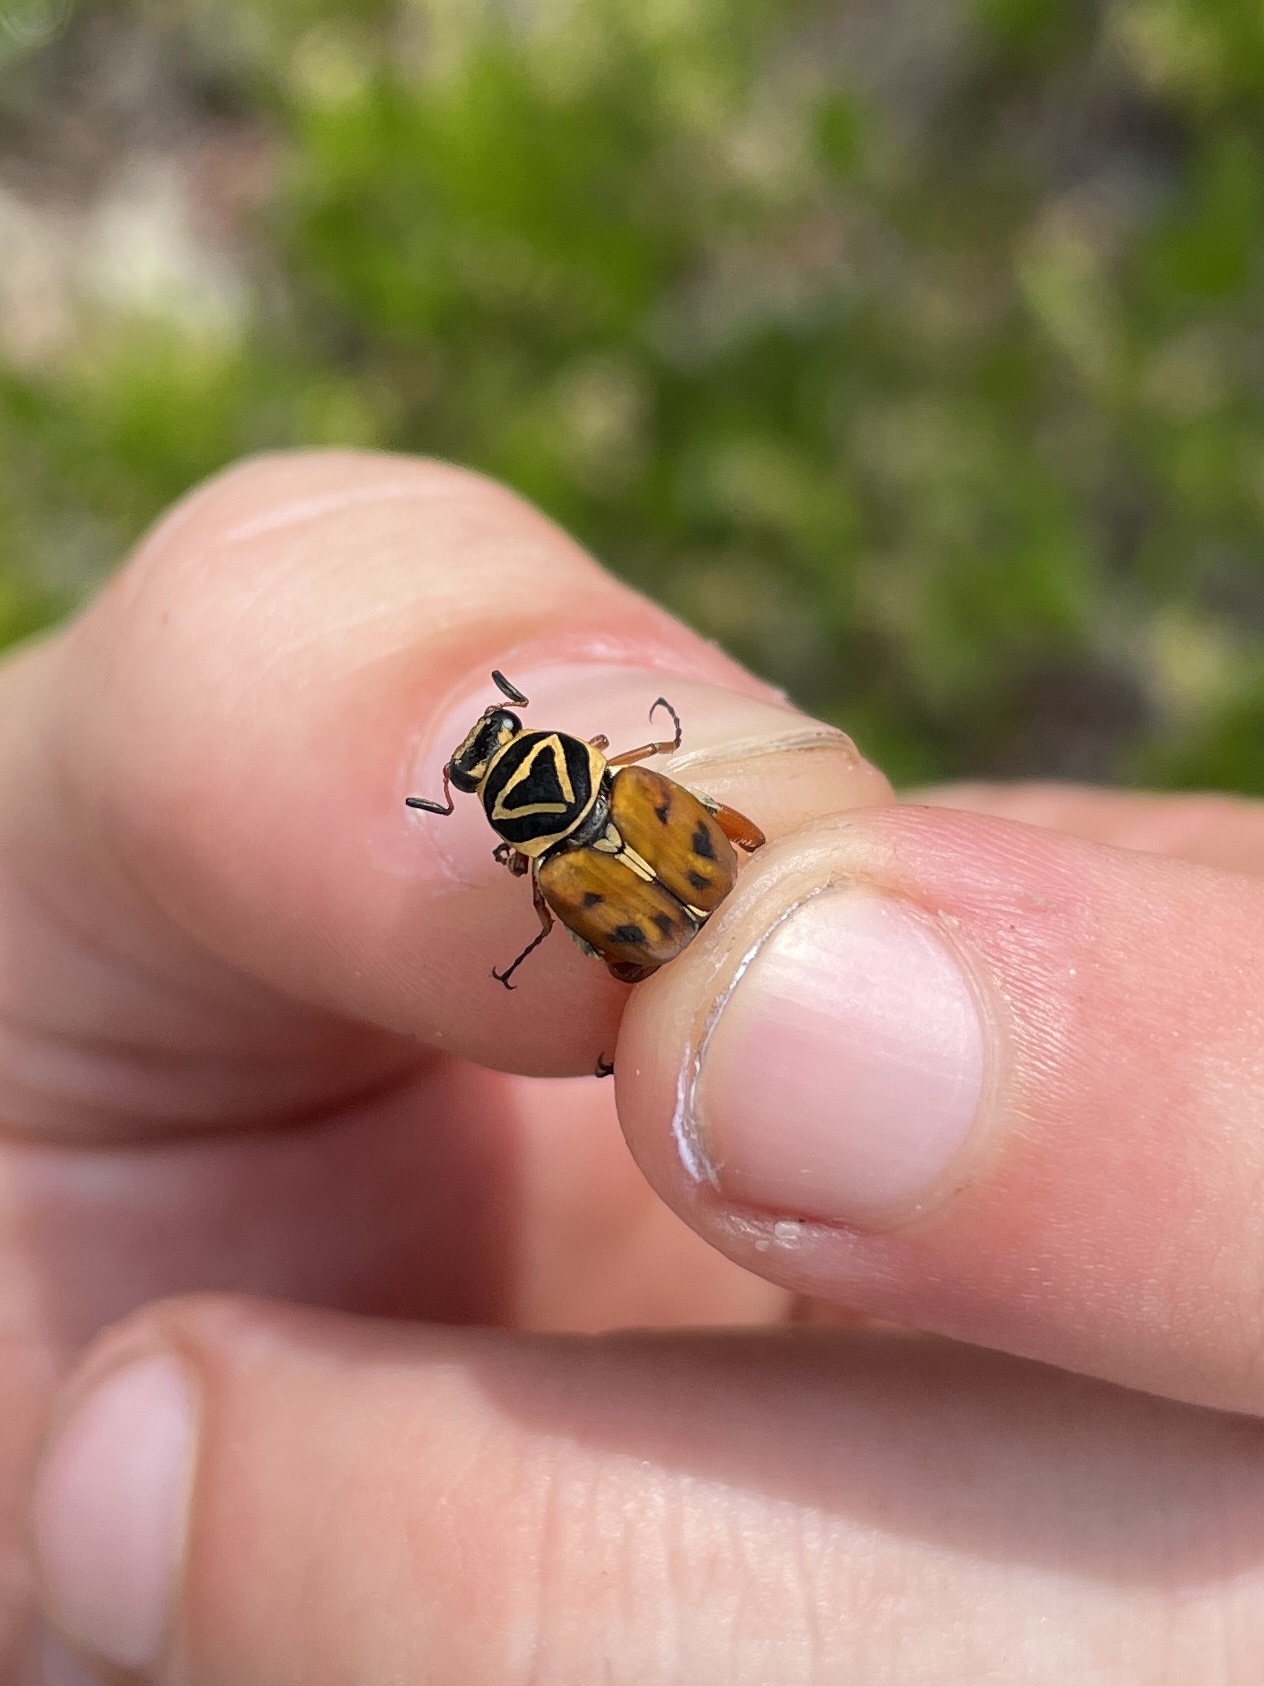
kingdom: Animalia
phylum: Arthropoda
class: Insecta
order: Coleoptera
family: Scarabaeidae
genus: Trigonopeltastes
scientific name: Trigonopeltastes delta
